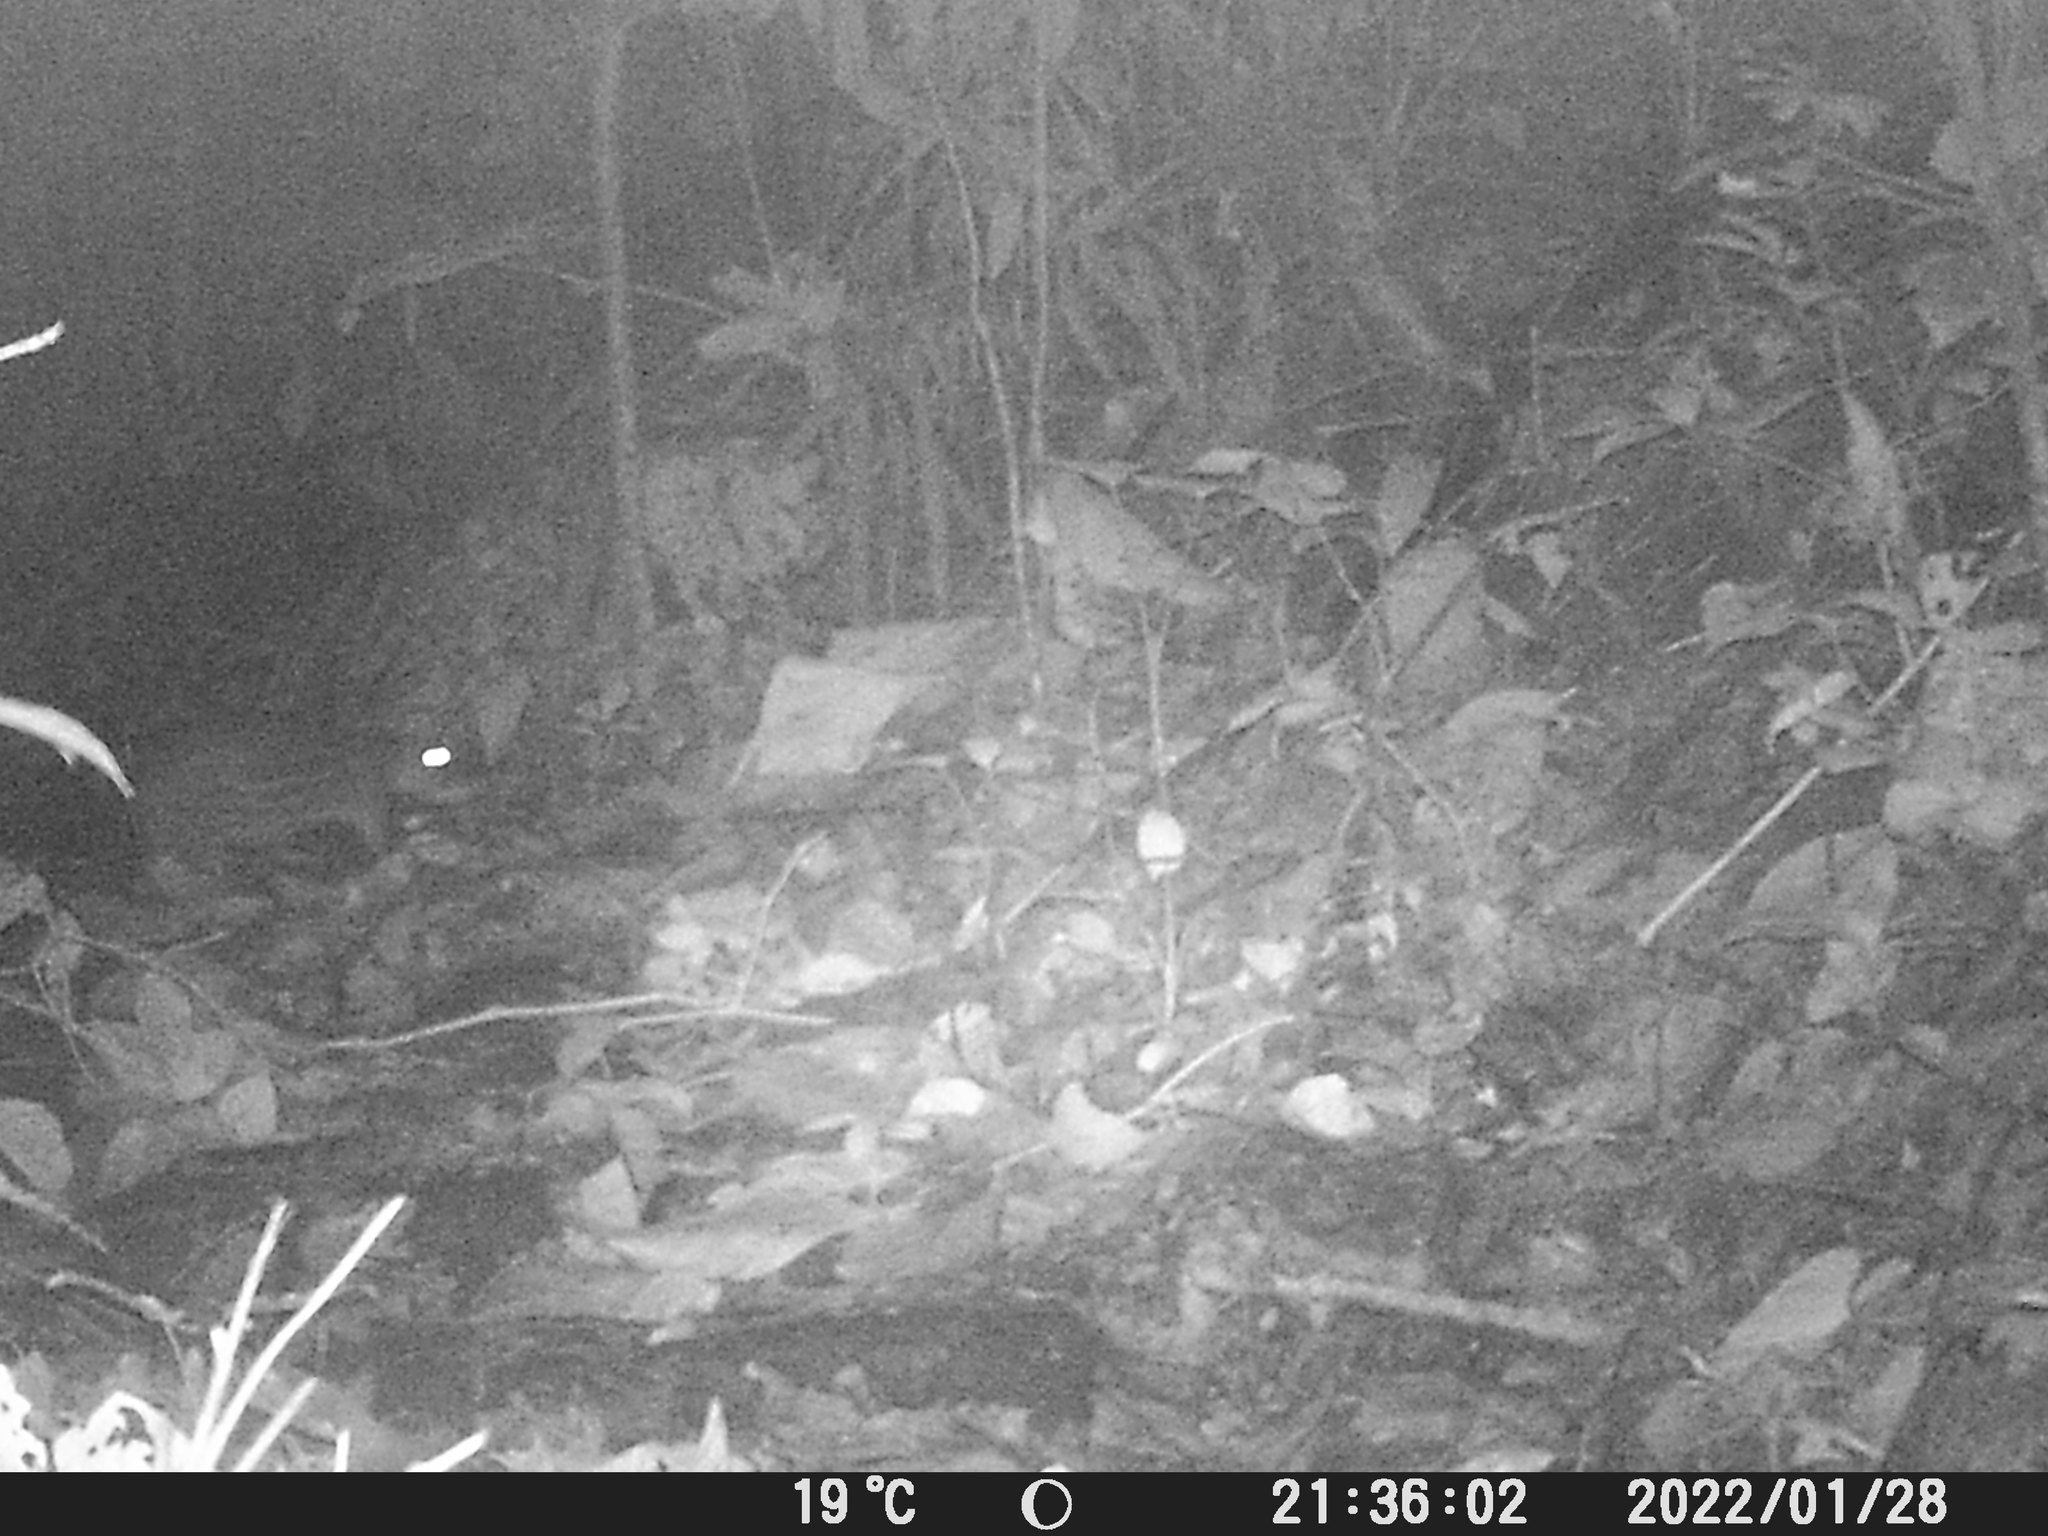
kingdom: Animalia
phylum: Chordata
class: Mammalia
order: Rodentia
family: Cuniculidae
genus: Cuniculus
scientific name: Cuniculus paca
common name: Lowland paca
